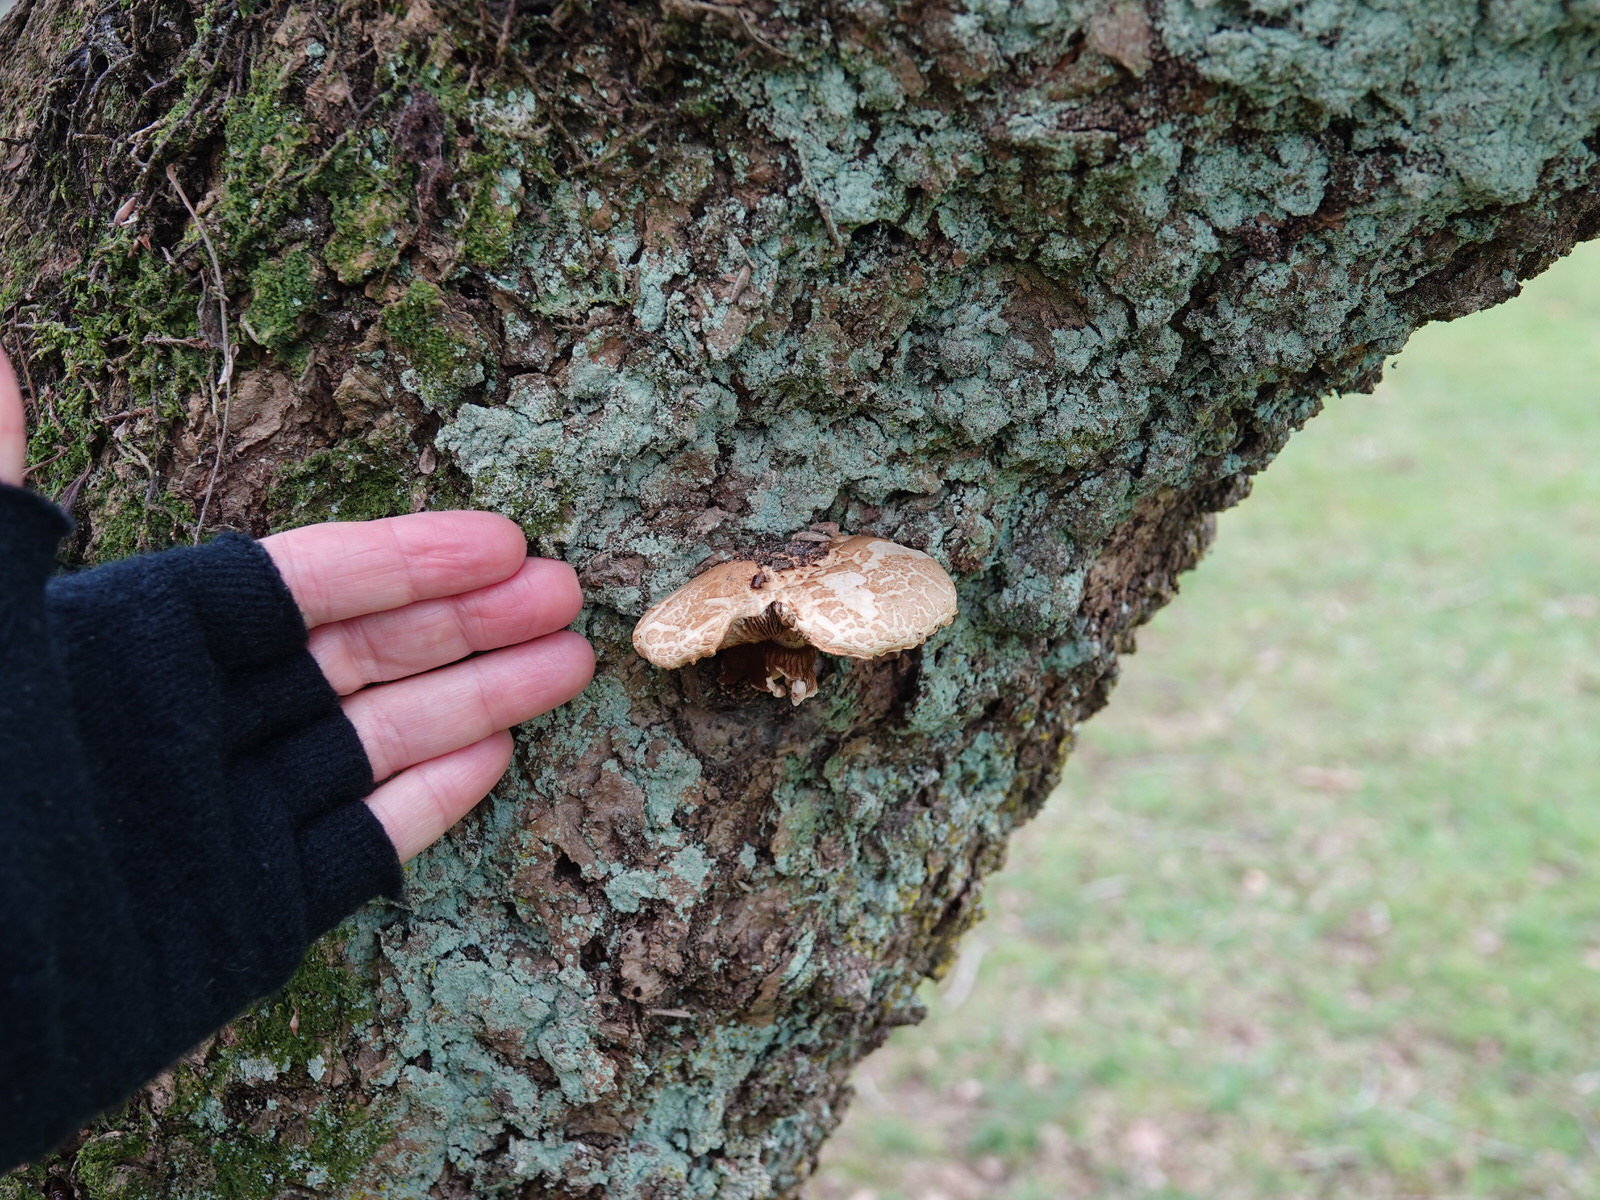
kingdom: Fungi
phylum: Basidiomycota
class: Agaricomycetes
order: Agaricales
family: Tubariaceae
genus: Cyclocybe
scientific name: Cyclocybe parasitica
